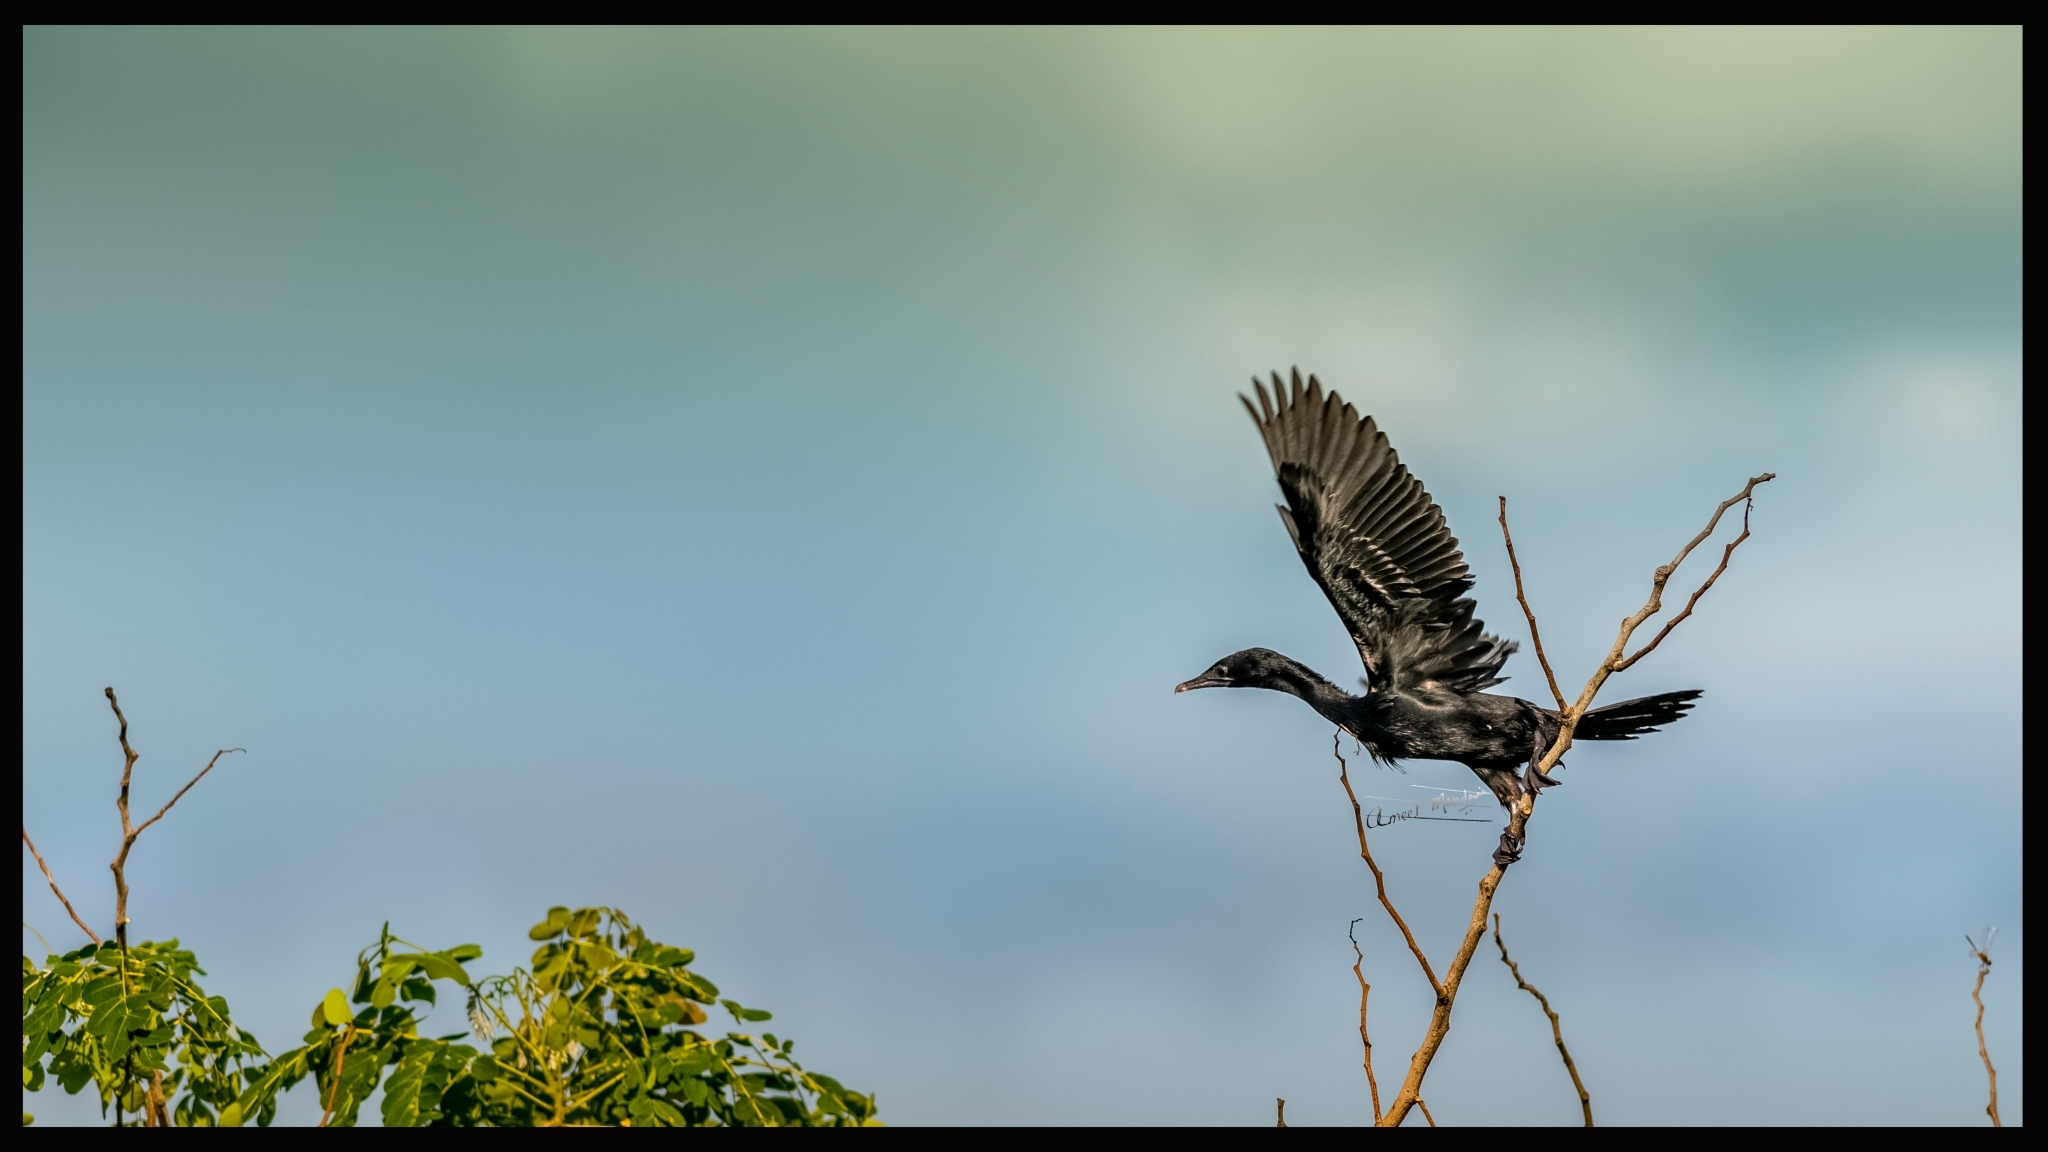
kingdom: Animalia
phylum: Chordata
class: Aves
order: Suliformes
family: Phalacrocoracidae
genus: Microcarbo
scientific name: Microcarbo niger
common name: Little cormorant
